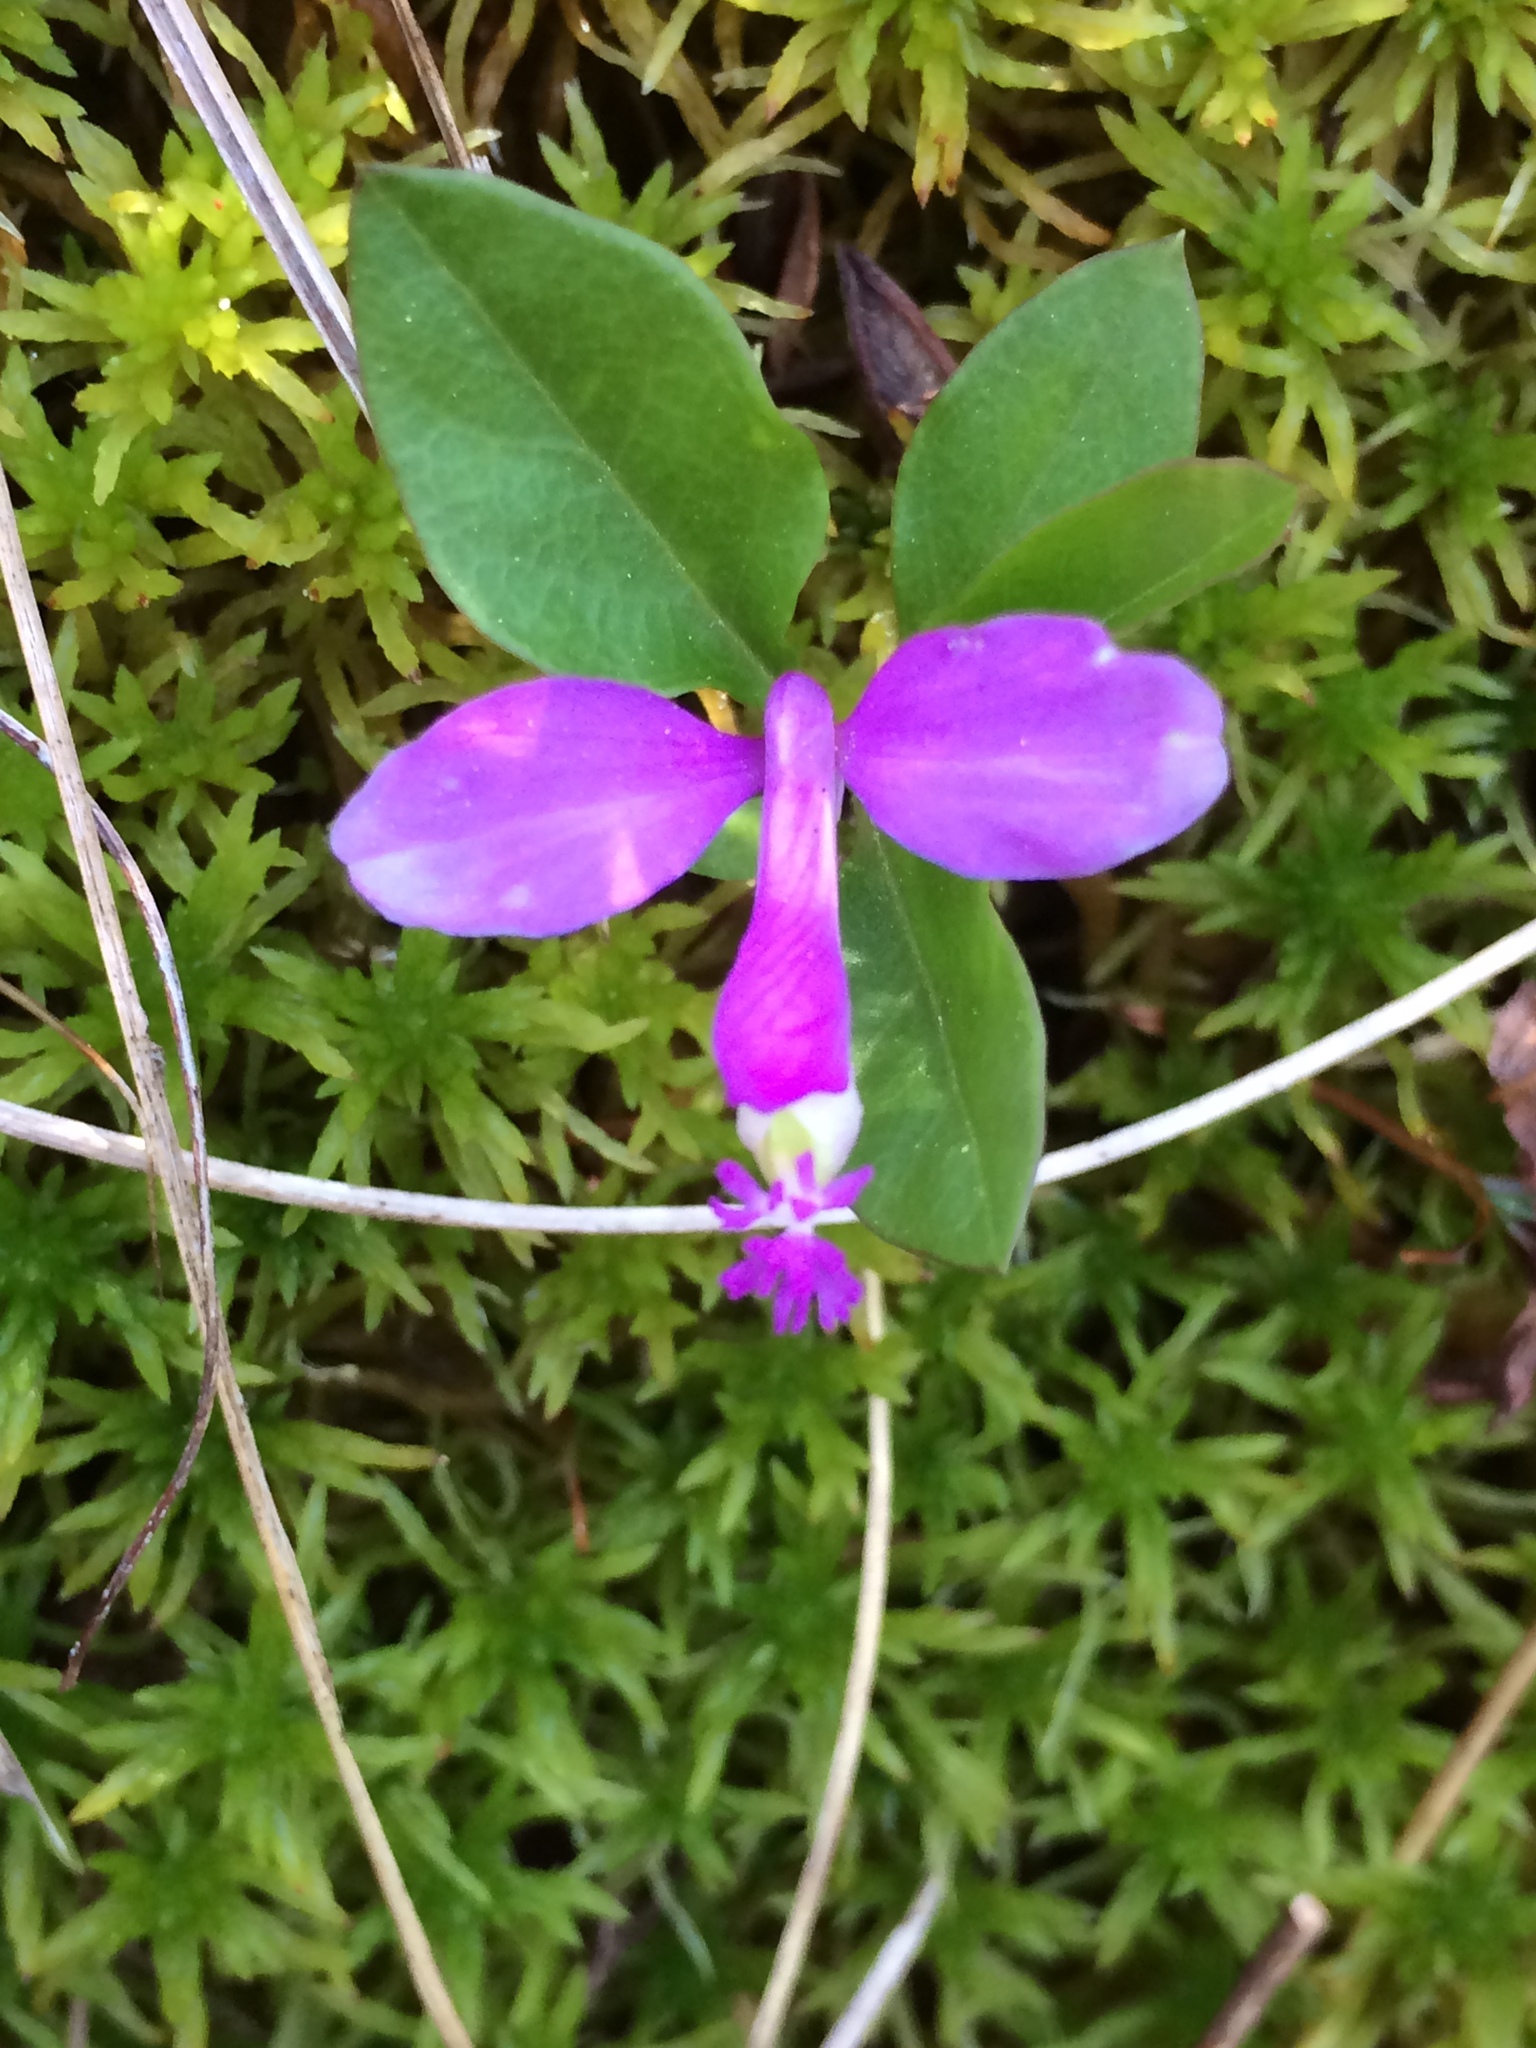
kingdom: Plantae
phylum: Tracheophyta
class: Magnoliopsida
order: Fabales
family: Polygalaceae
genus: Polygaloides
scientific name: Polygaloides paucifolia
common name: Bird-on-the-wing
